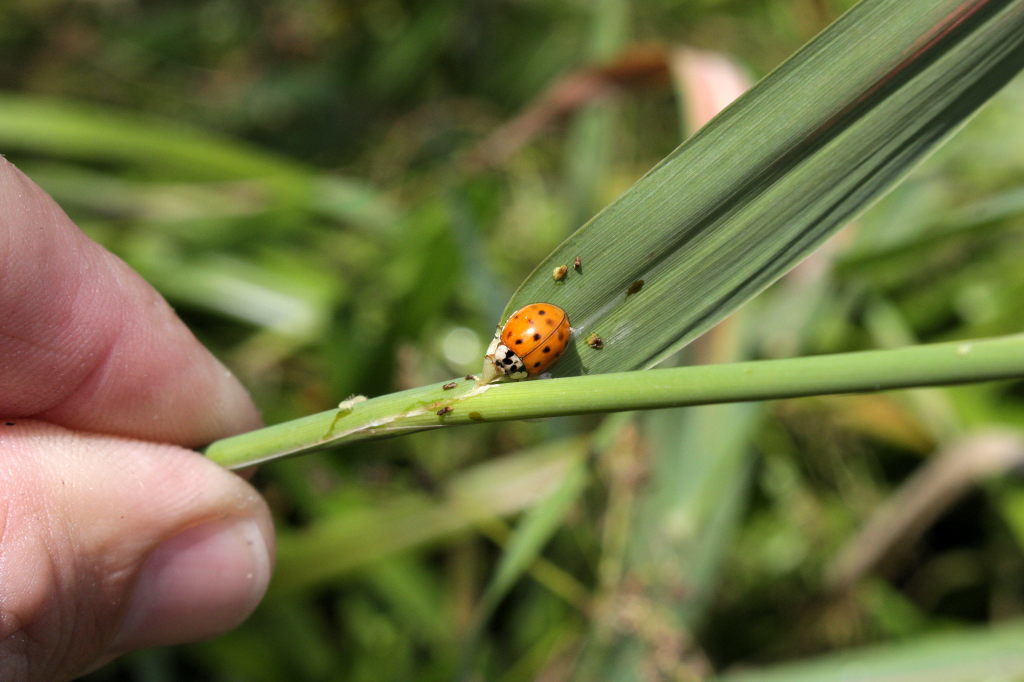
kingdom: Animalia
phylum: Arthropoda
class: Insecta
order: Coleoptera
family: Coccinellidae
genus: Harmonia
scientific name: Harmonia axyridis
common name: Harlequin ladybird
